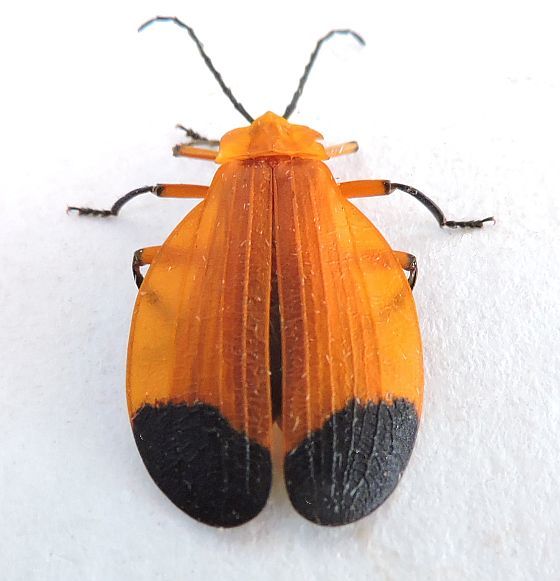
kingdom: Animalia
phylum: Arthropoda
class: Insecta
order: Coleoptera
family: Lycidae
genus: Lycus
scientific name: Lycus arizonensis
